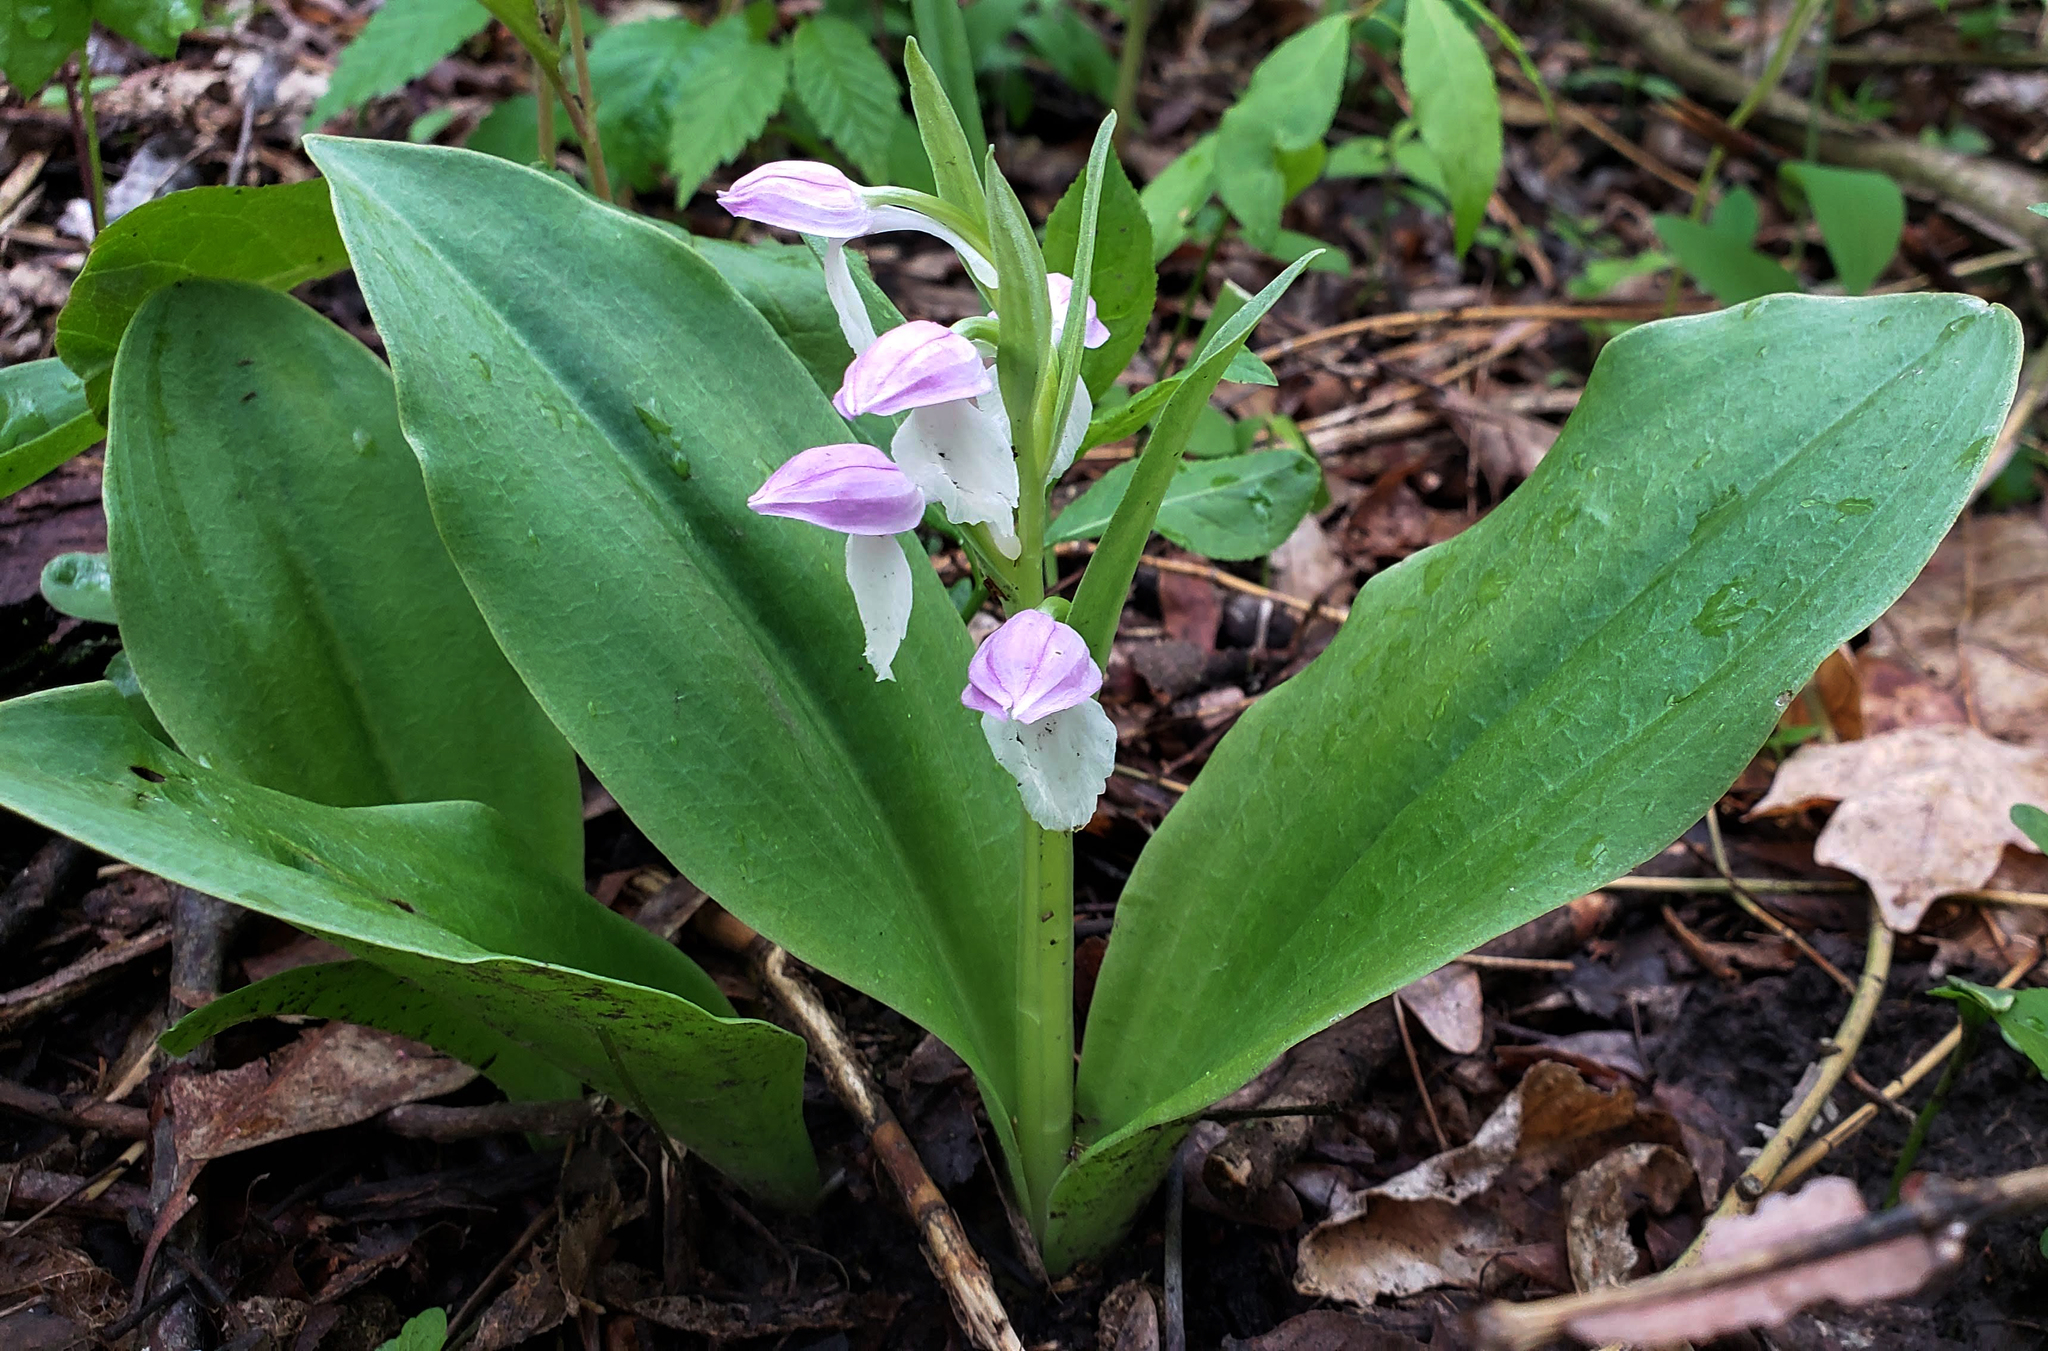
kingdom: Plantae
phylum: Tracheophyta
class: Liliopsida
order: Asparagales
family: Orchidaceae
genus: Galearis
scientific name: Galearis spectabilis
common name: Purple-hooded orchis
